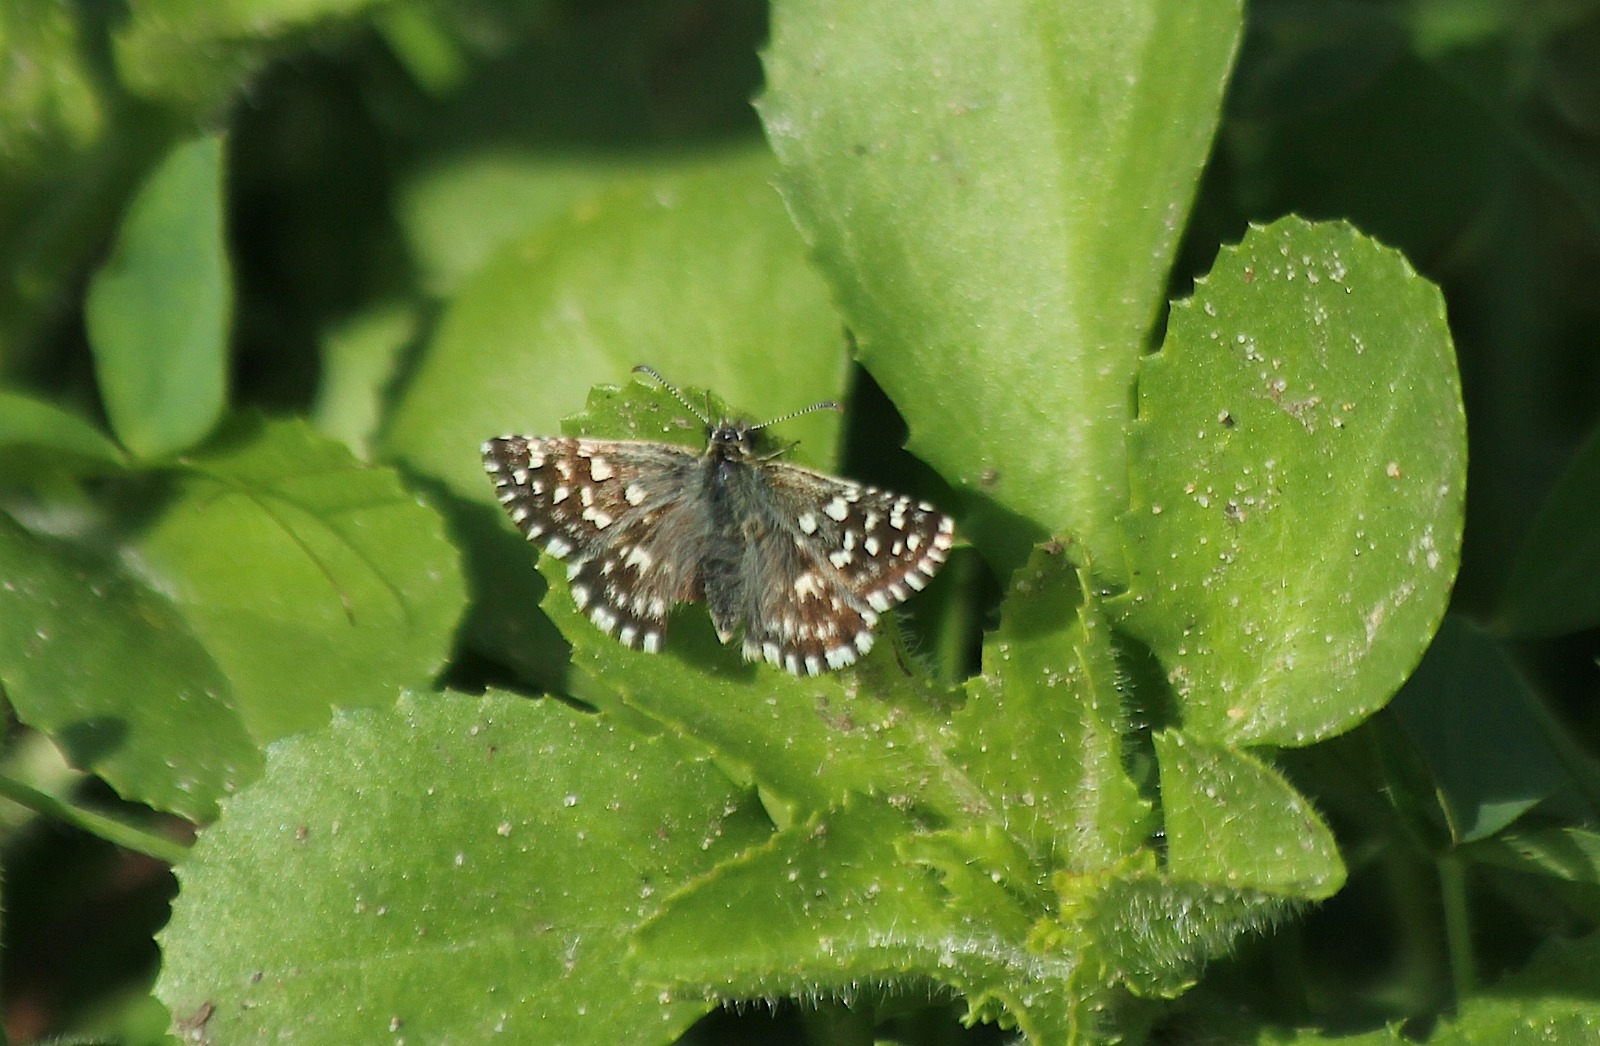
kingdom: Animalia
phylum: Arthropoda
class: Insecta
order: Lepidoptera
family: Hesperiidae
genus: Pyrgus
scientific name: Pyrgus malvoides
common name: Southern grizzled skipper
